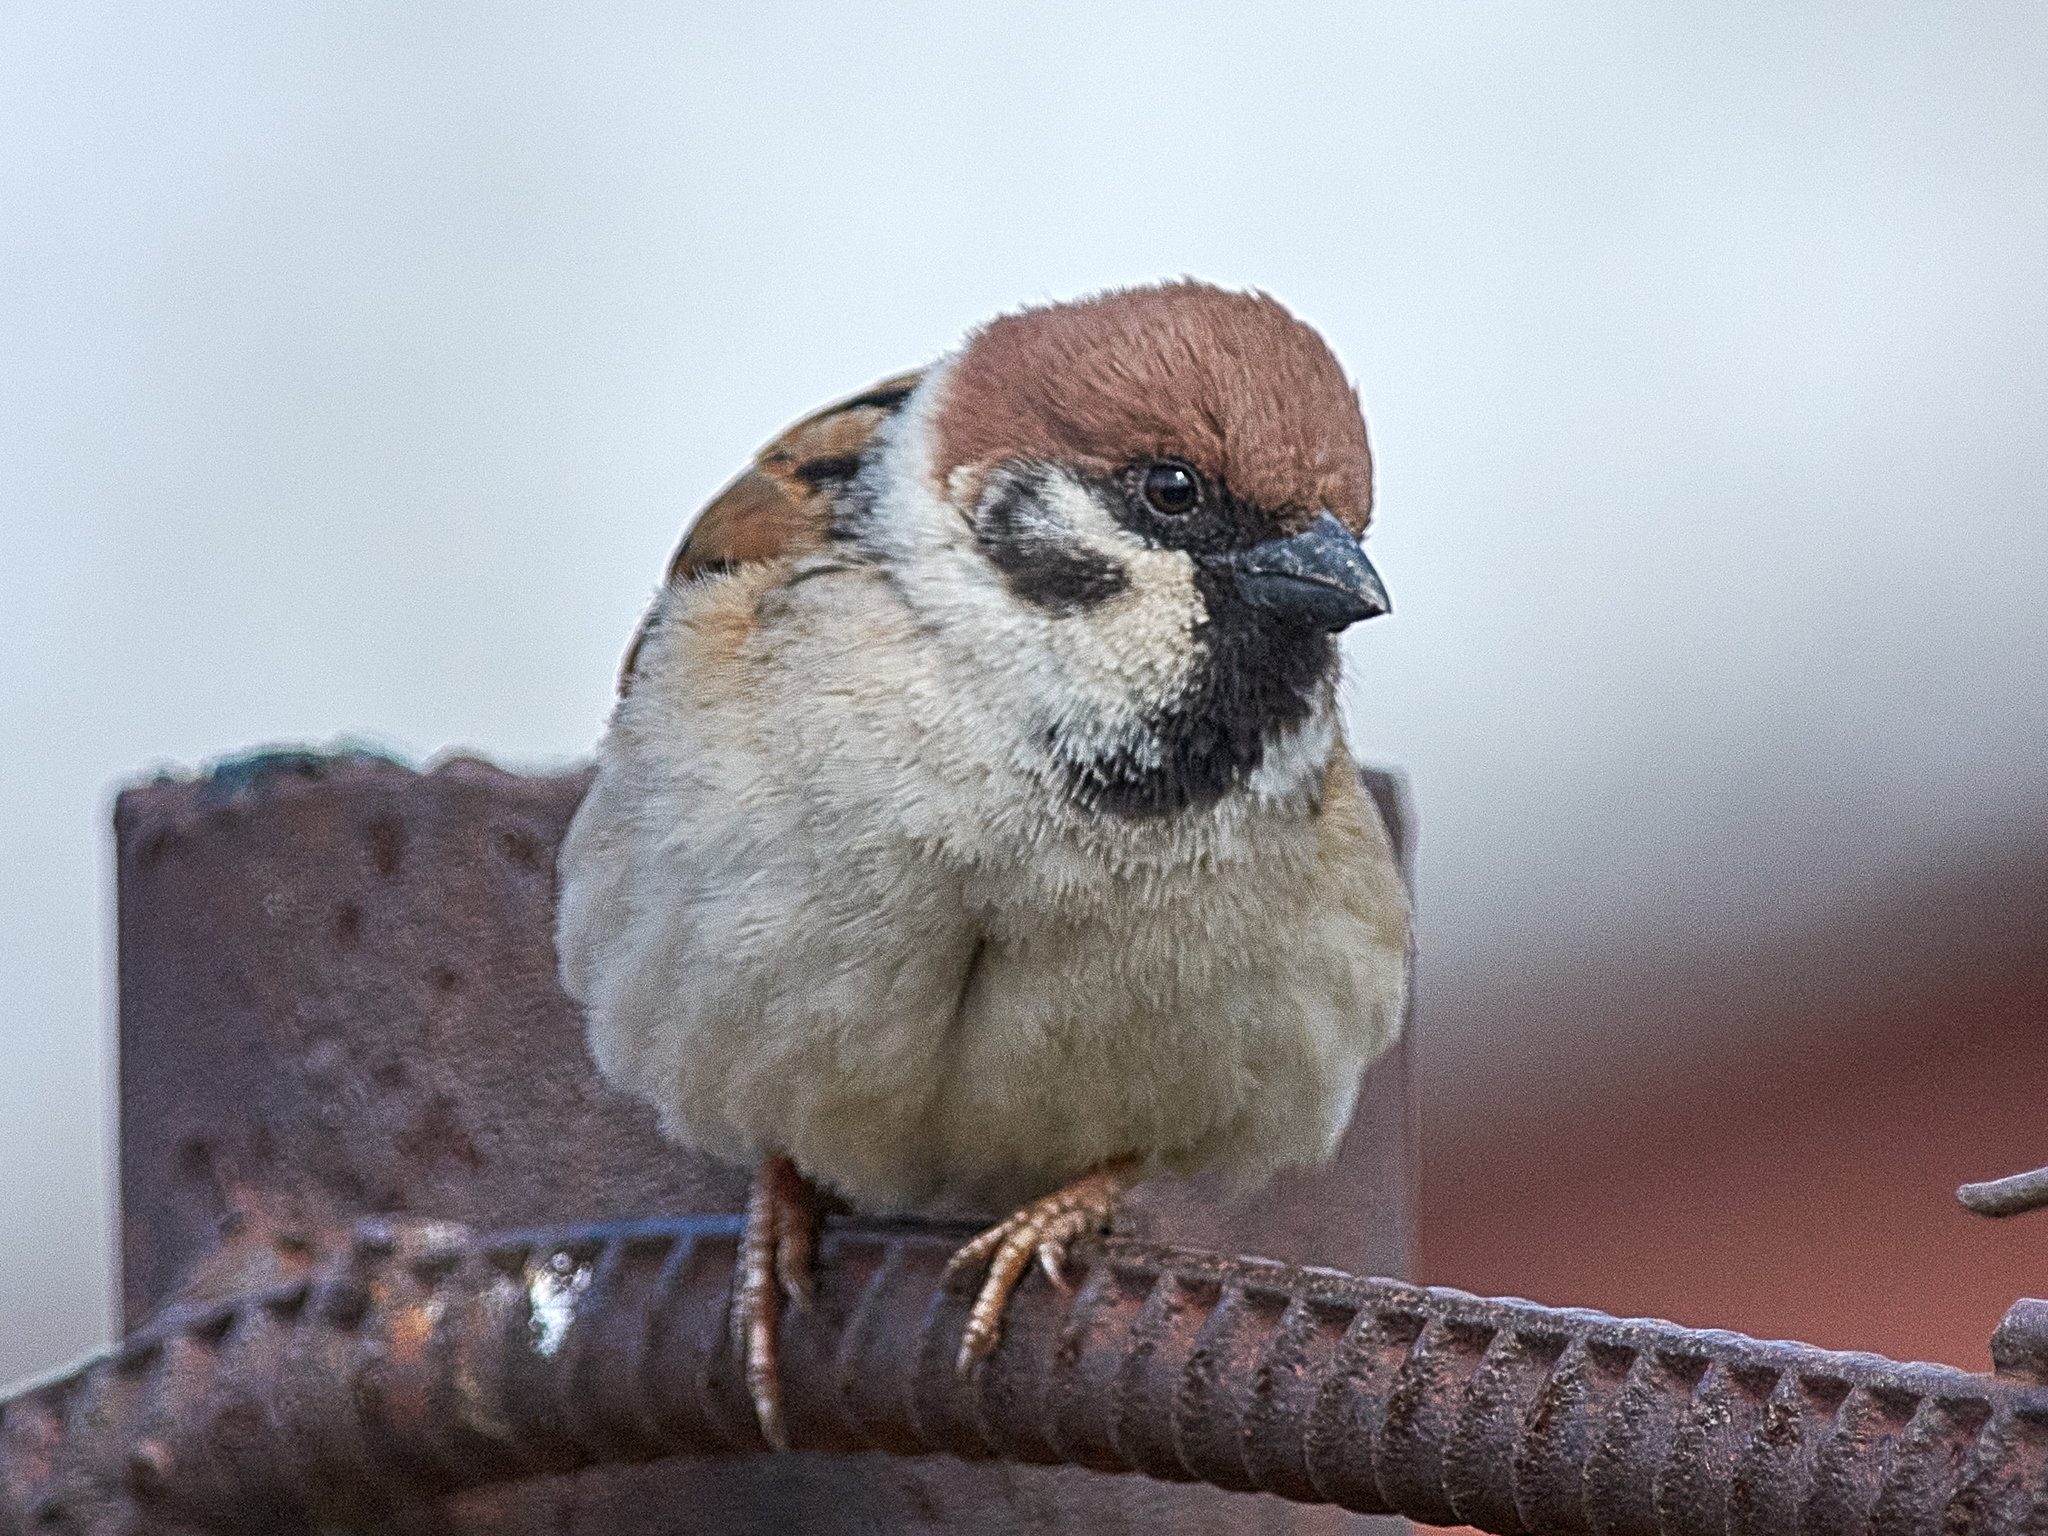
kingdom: Animalia
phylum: Chordata
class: Aves
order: Passeriformes
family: Passeridae
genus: Passer
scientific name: Passer montanus
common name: Eurasian tree sparrow
